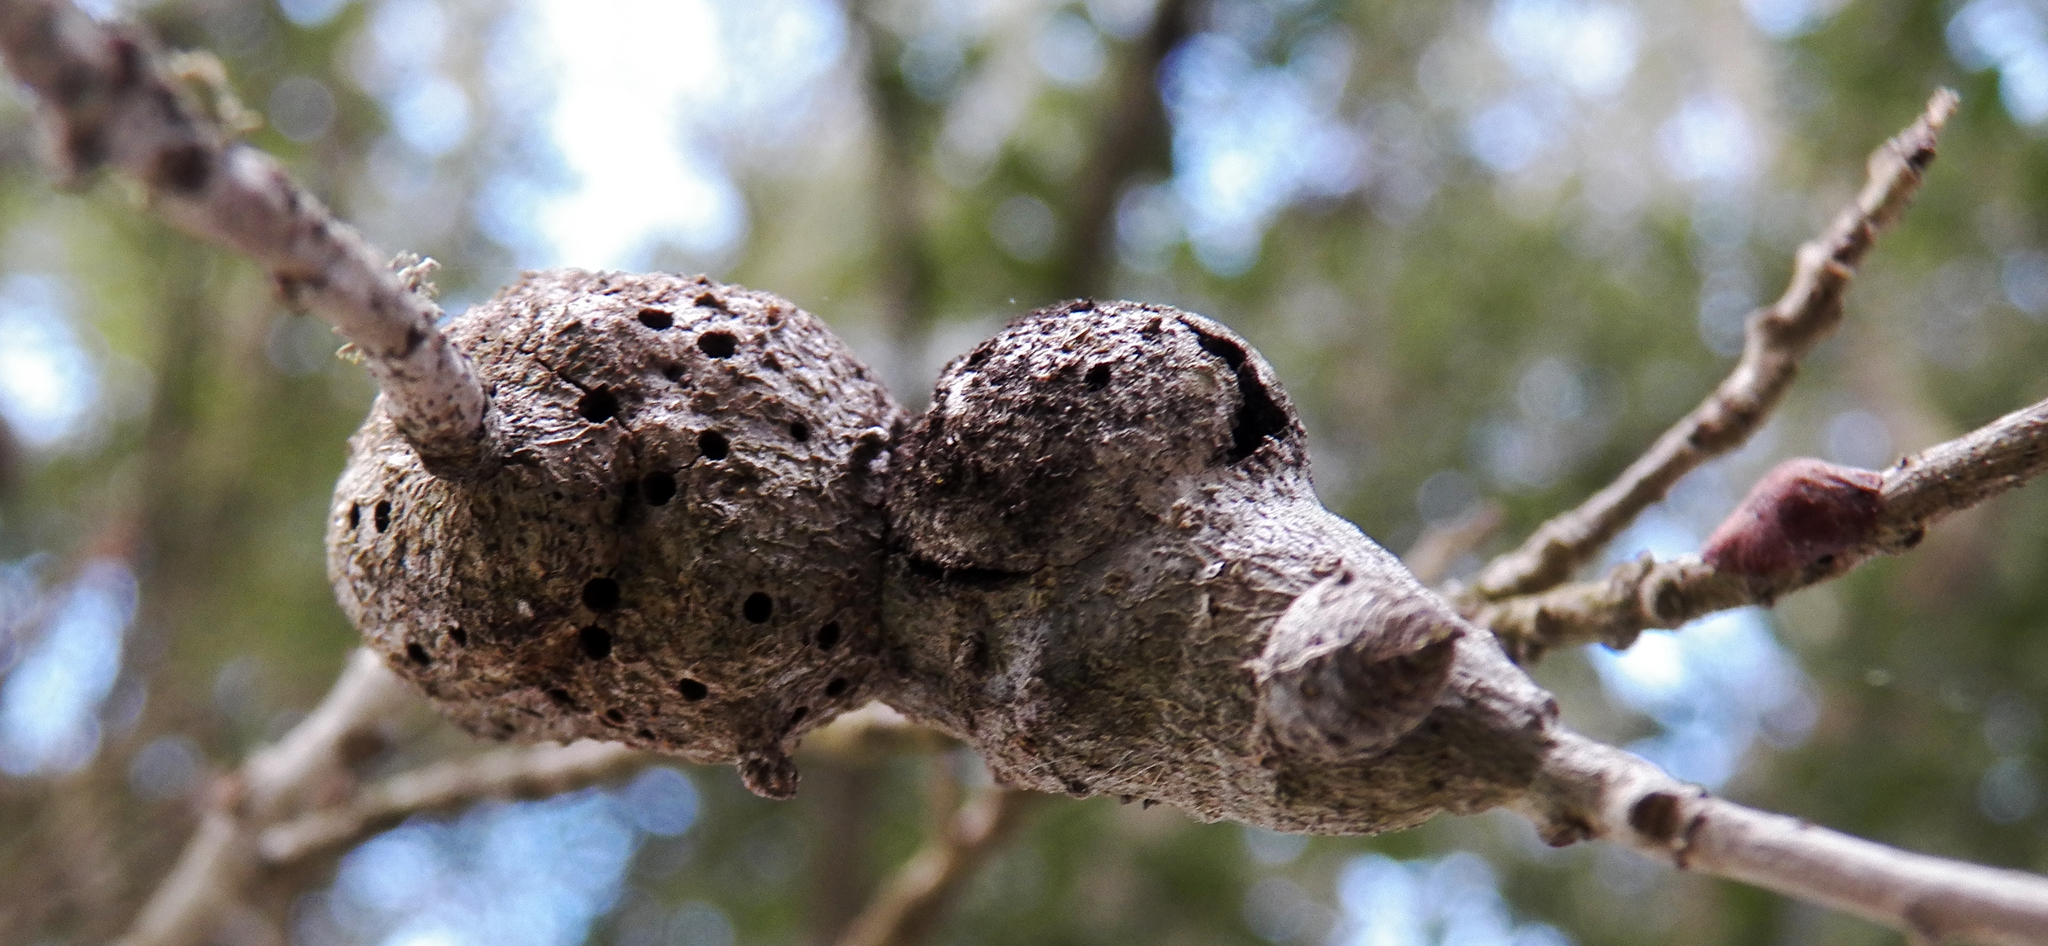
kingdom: Animalia
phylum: Arthropoda
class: Insecta
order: Hymenoptera
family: Cynipidae
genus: Callirhytis
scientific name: Callirhytis
